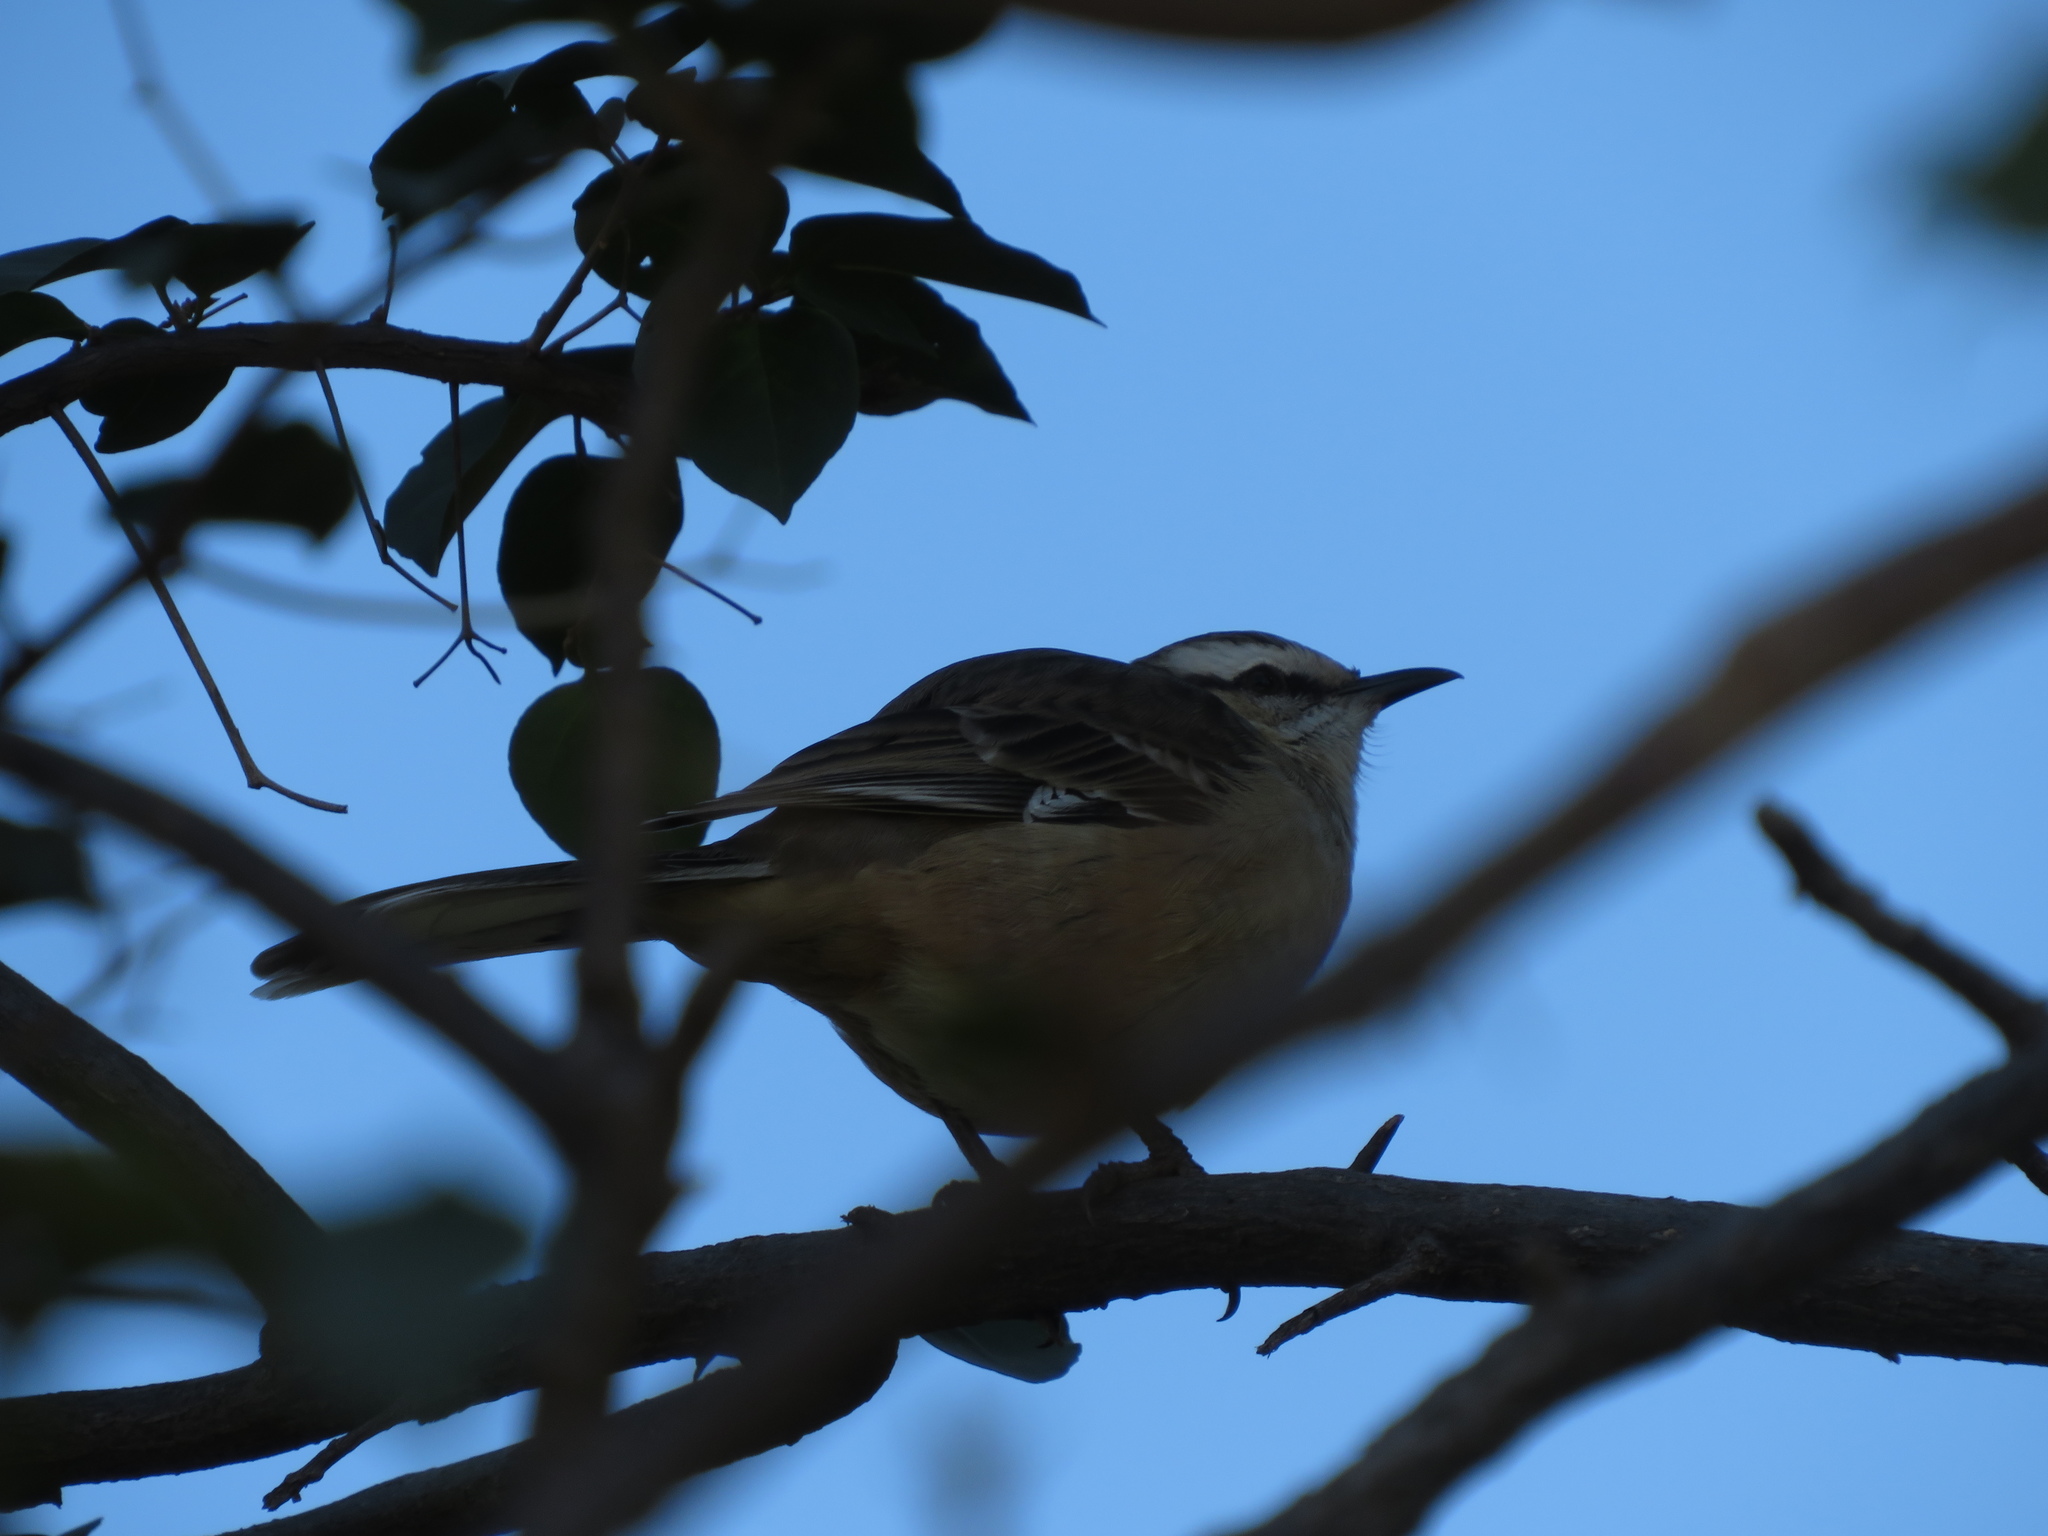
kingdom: Animalia
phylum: Chordata
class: Aves
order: Passeriformes
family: Mimidae
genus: Mimus
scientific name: Mimus saturninus
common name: Chalk-browed mockingbird
